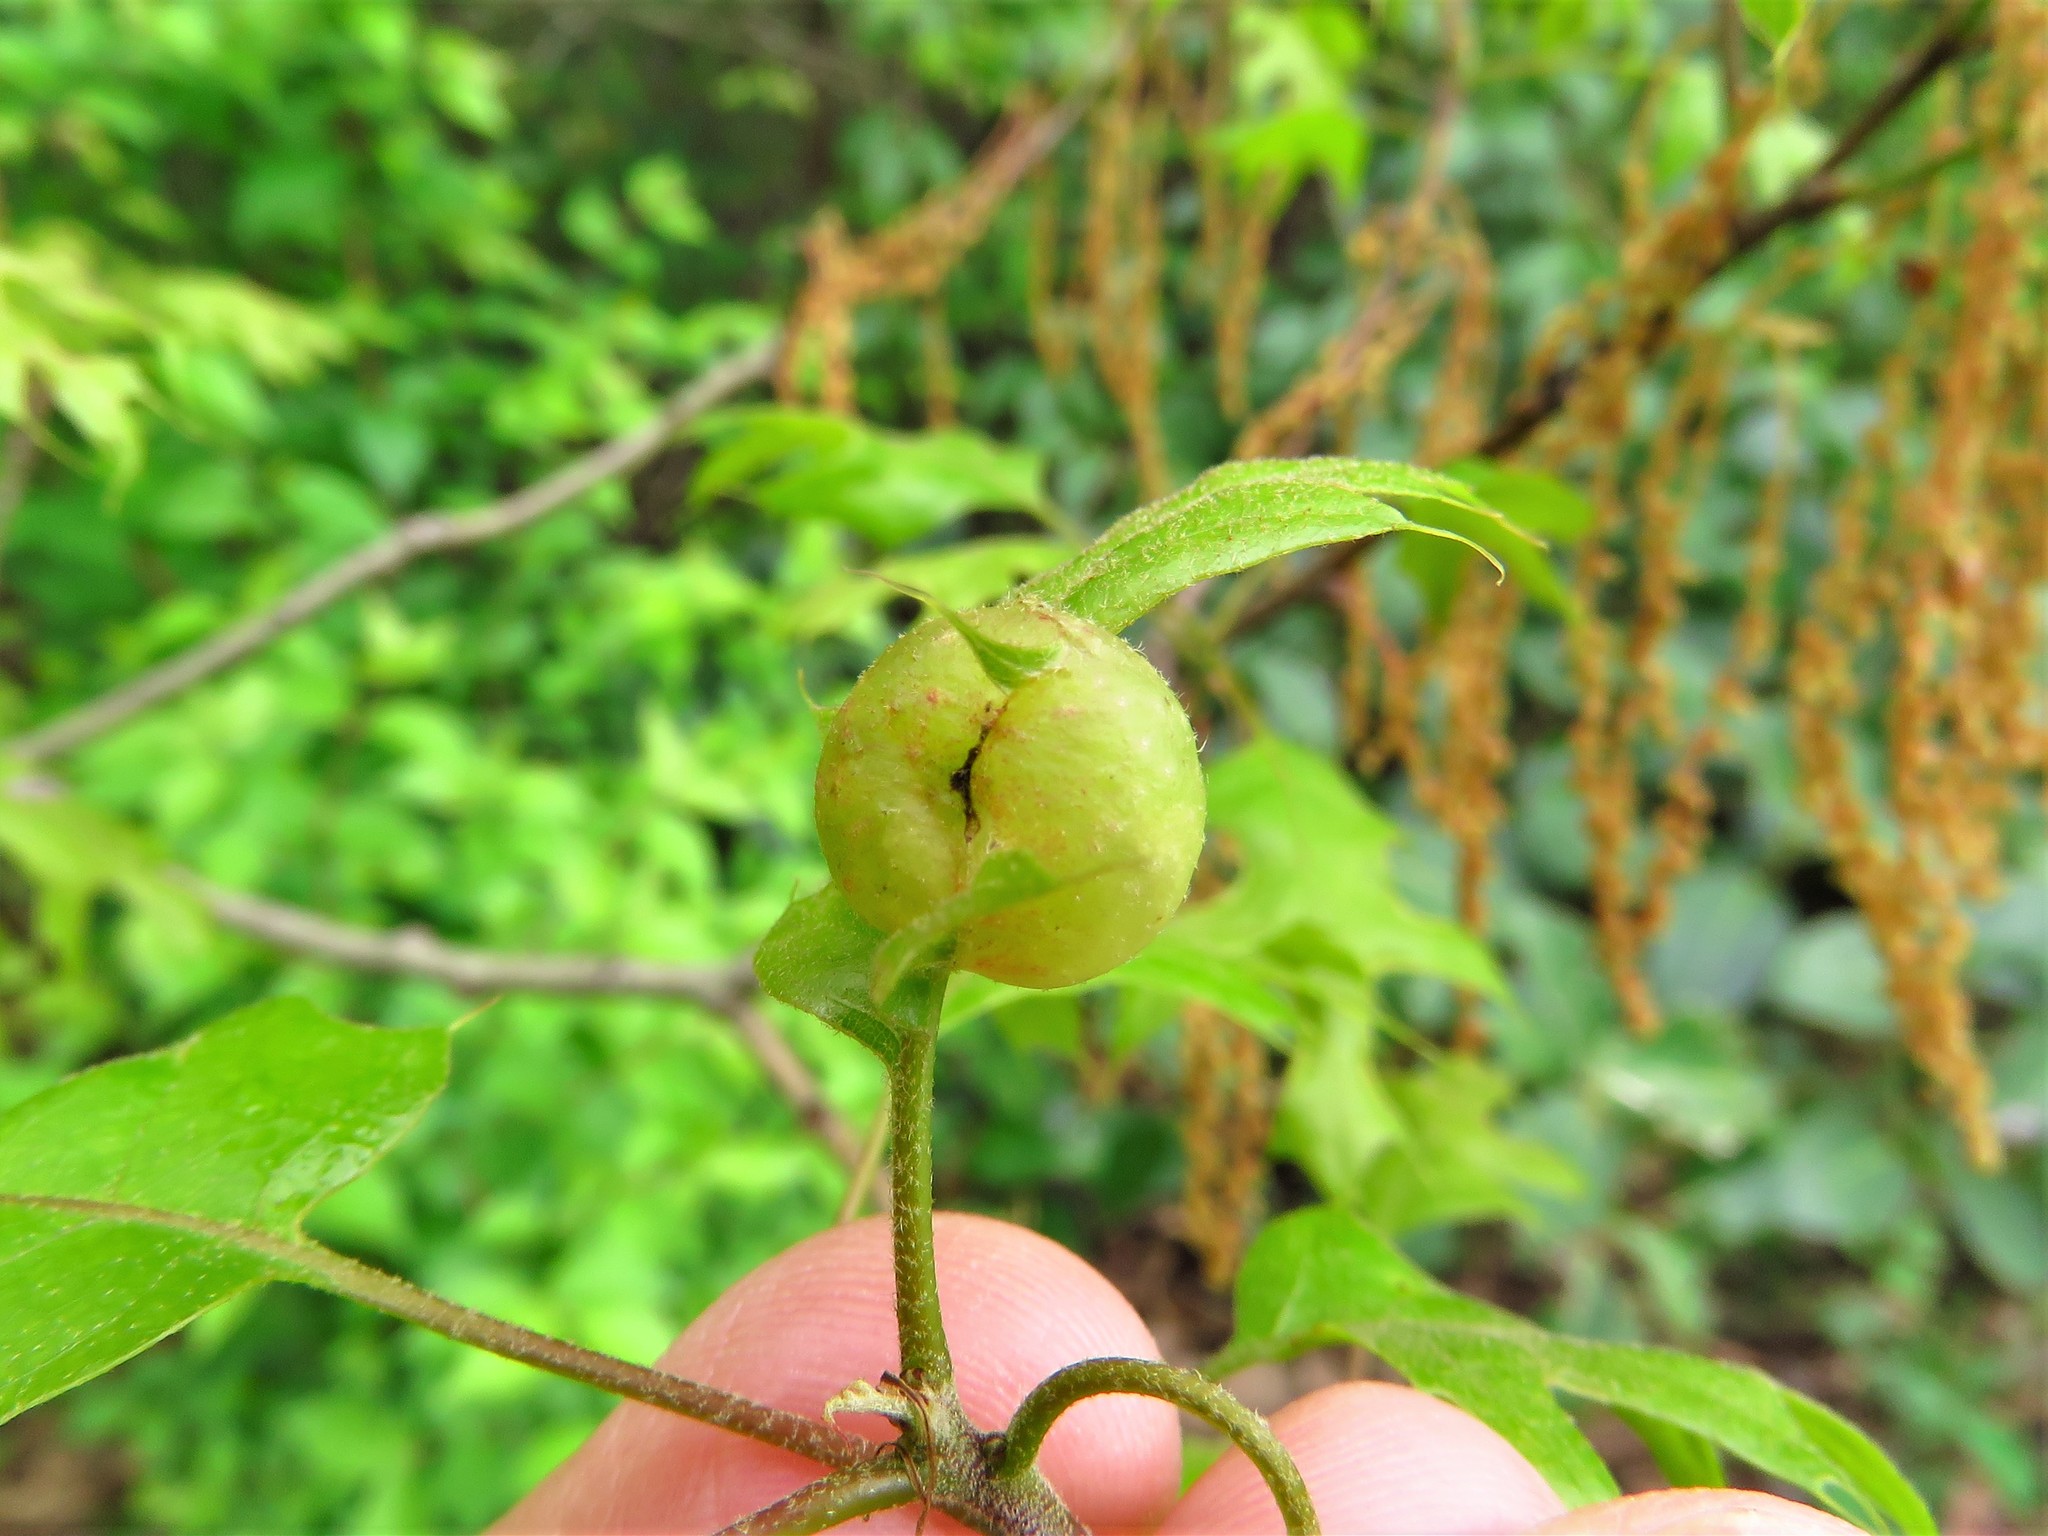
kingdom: Animalia
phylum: Arthropoda
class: Insecta
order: Hymenoptera
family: Cynipidae
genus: Dryocosmus
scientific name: Dryocosmus quercuspalustris
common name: Succulent oak gall wasp
